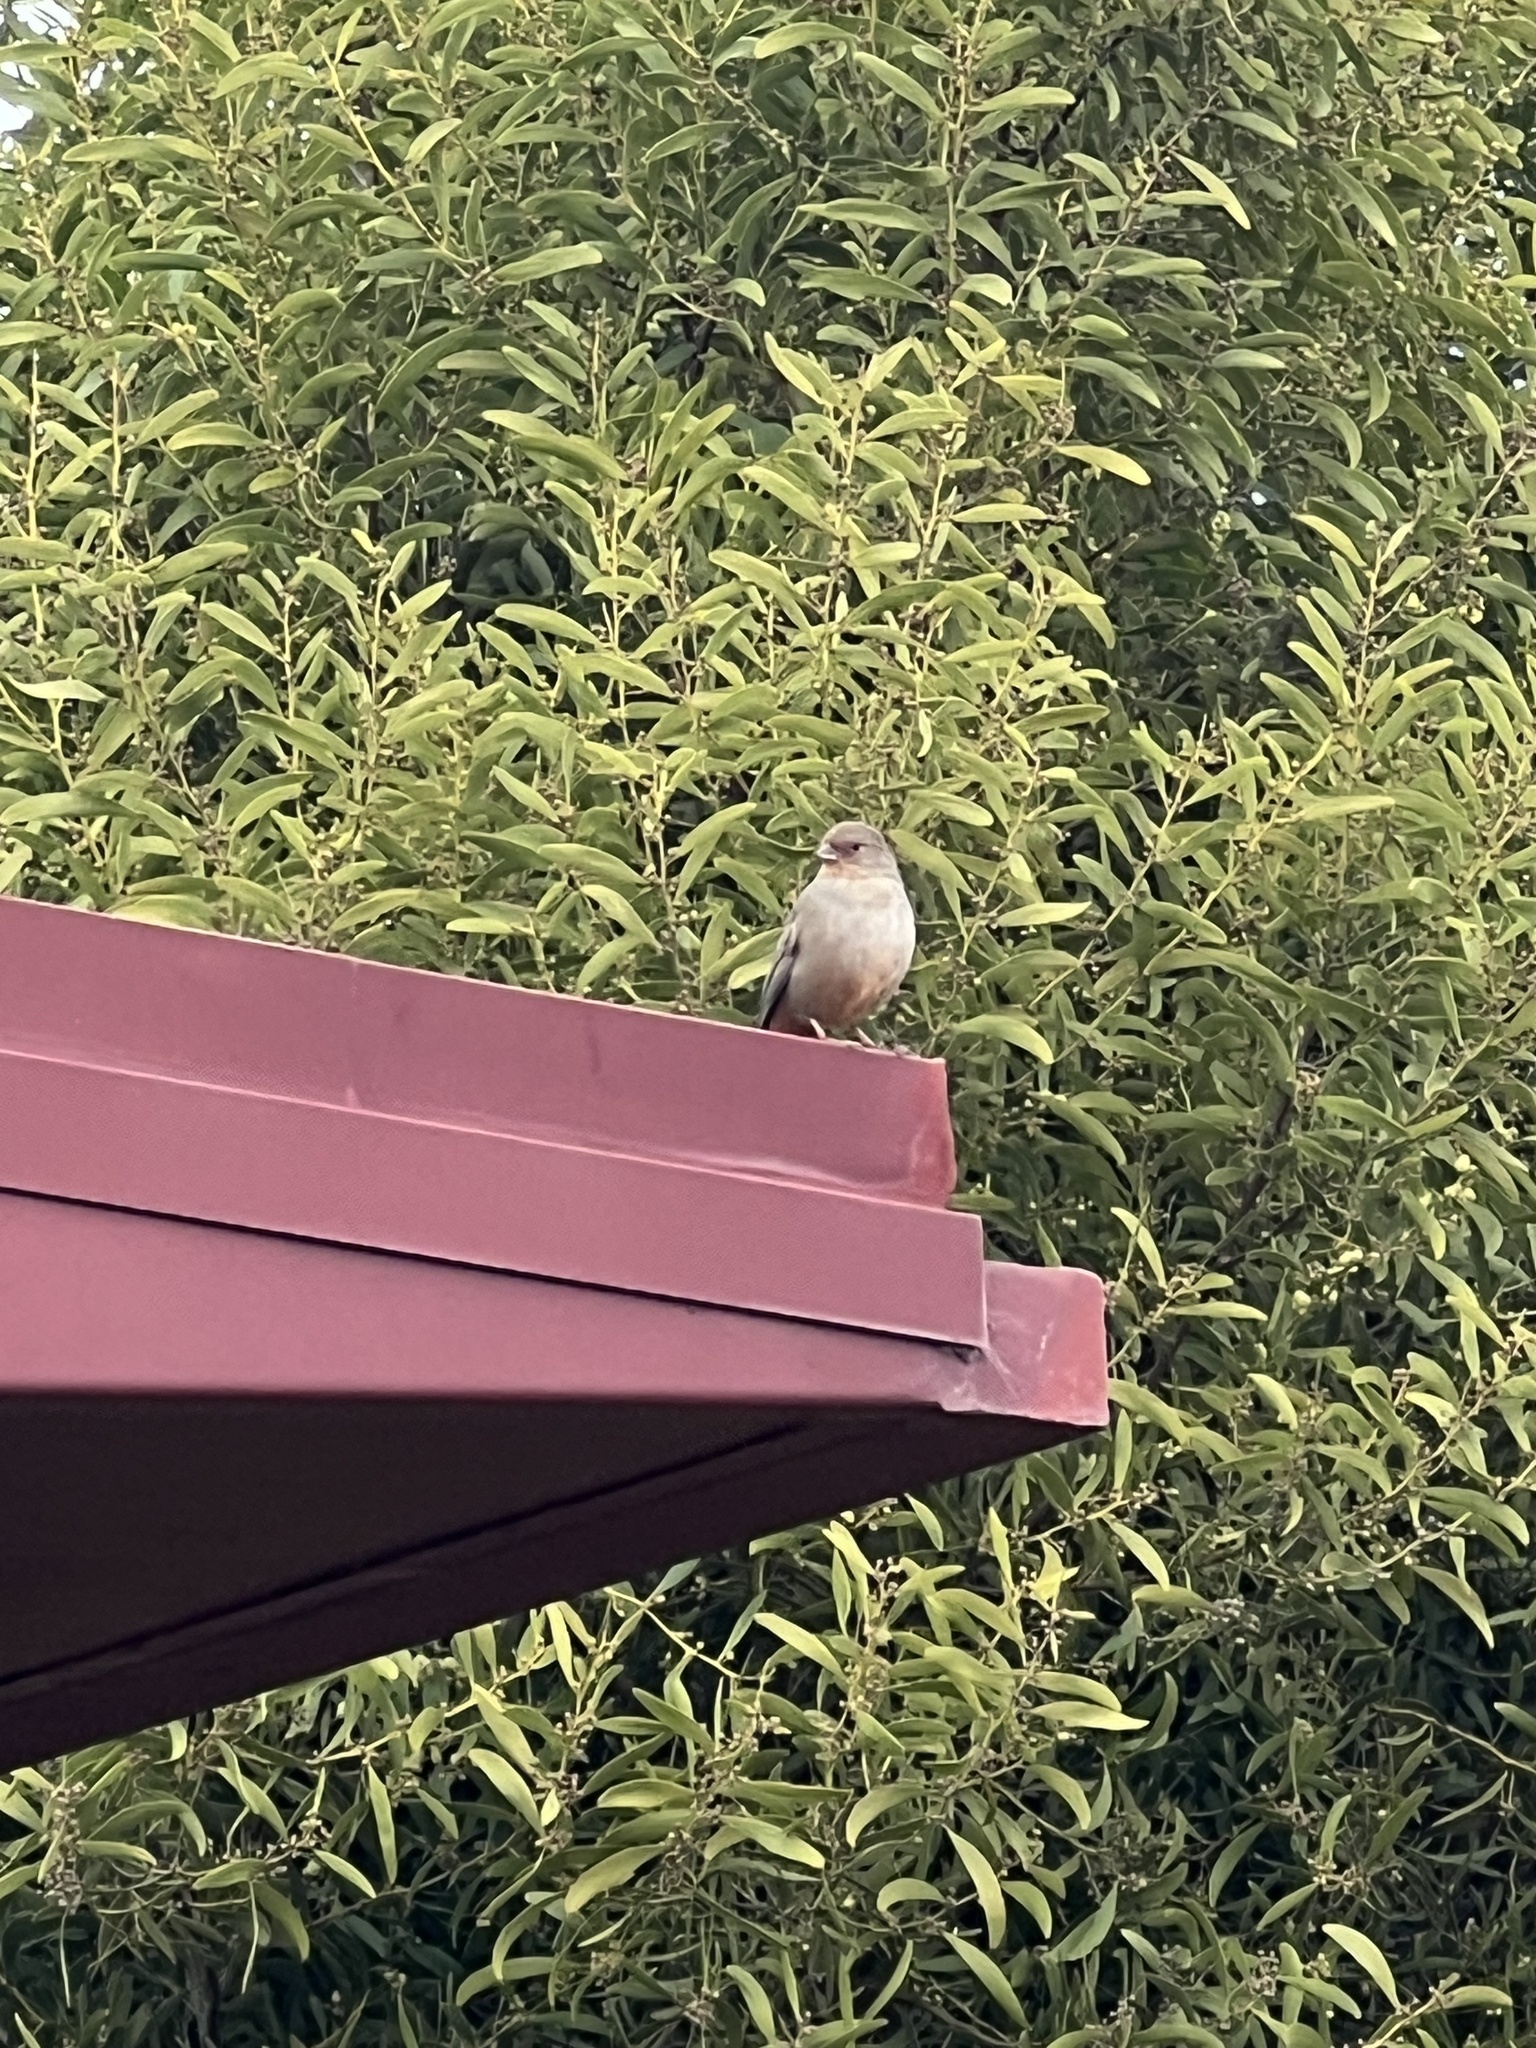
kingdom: Animalia
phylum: Chordata
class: Aves
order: Passeriformes
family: Passerellidae
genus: Melozone
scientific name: Melozone crissalis
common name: California towhee
